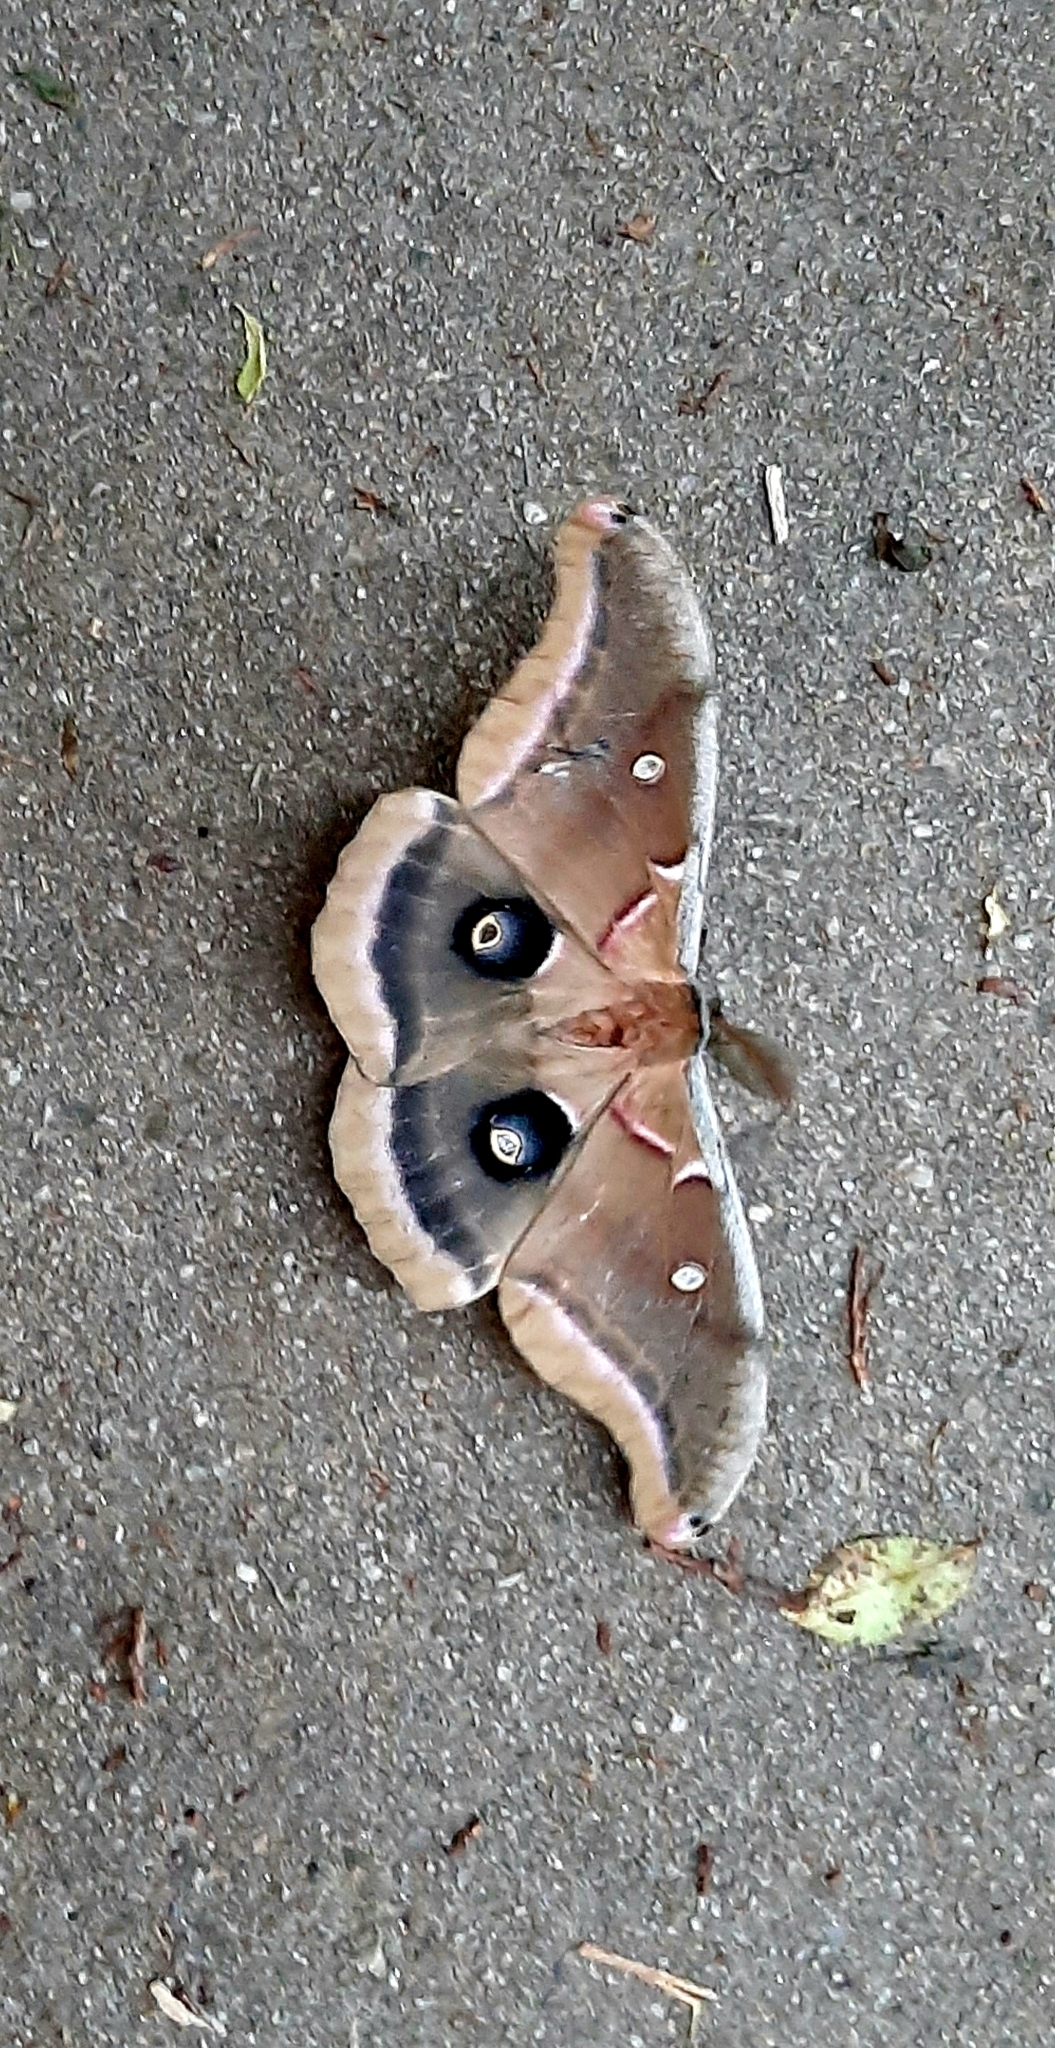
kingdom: Animalia
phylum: Arthropoda
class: Insecta
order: Lepidoptera
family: Saturniidae
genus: Antheraea
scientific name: Antheraea polyphemus
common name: Polyphemus moth
